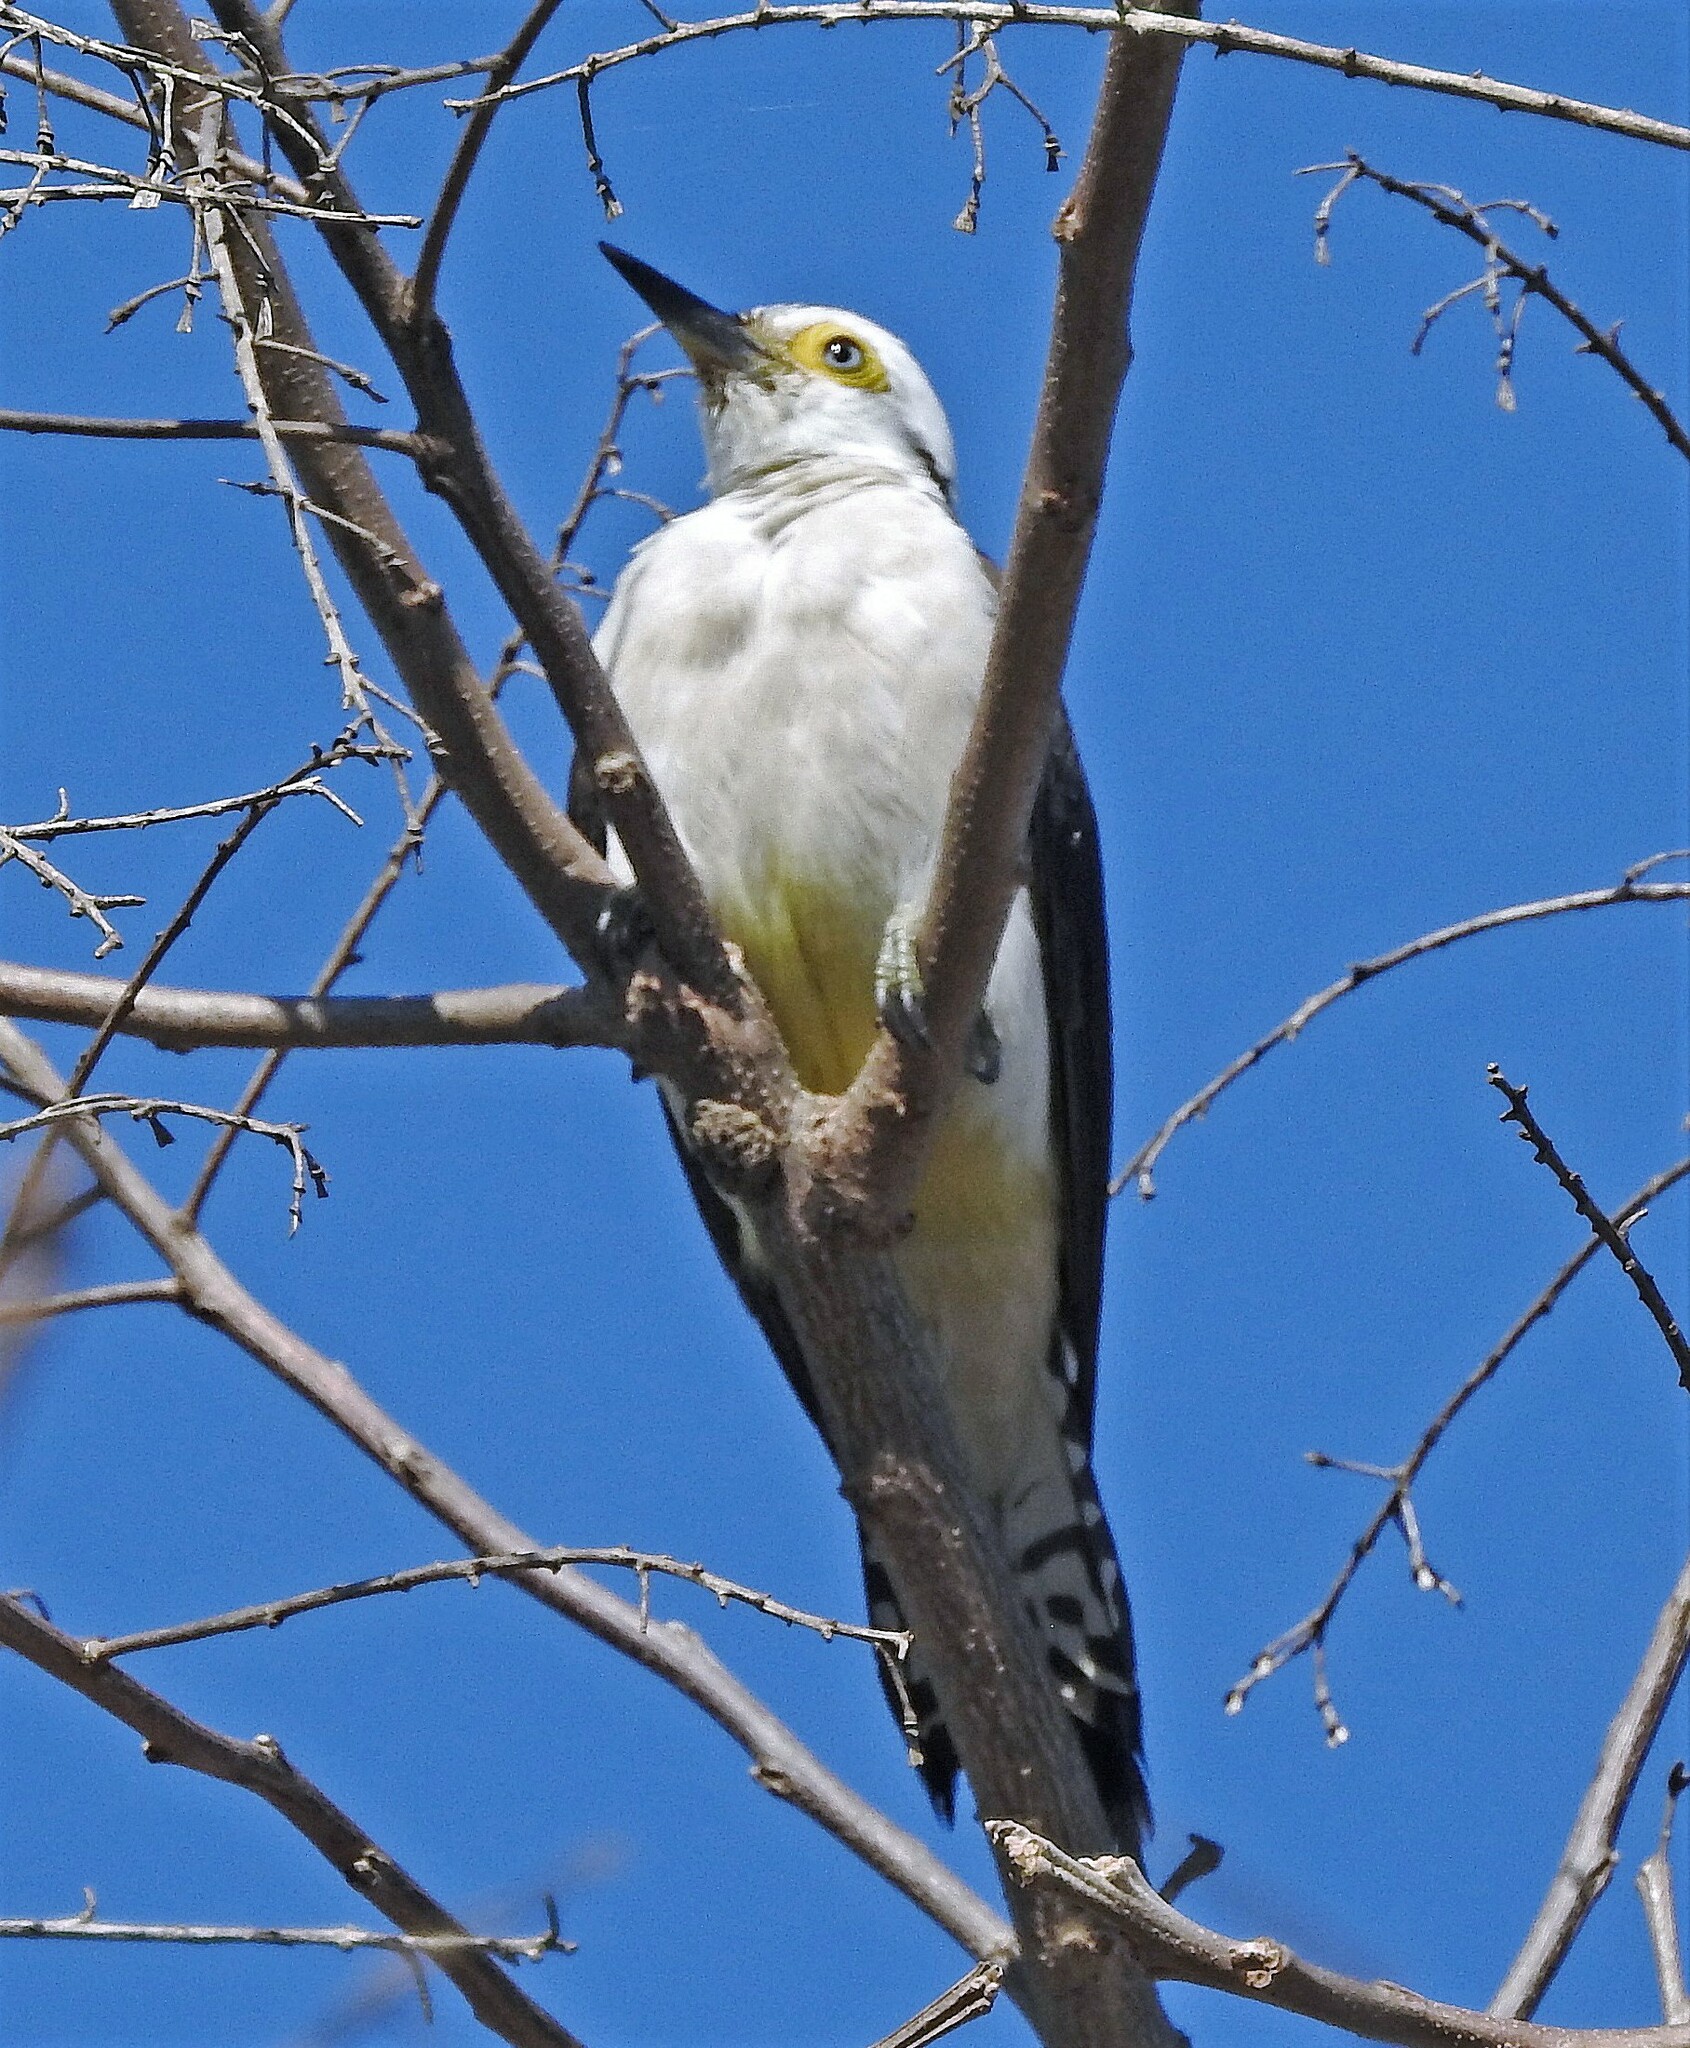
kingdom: Animalia
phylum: Chordata
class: Aves
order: Piciformes
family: Picidae
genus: Melanerpes
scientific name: Melanerpes candidus
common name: White woodpecker
